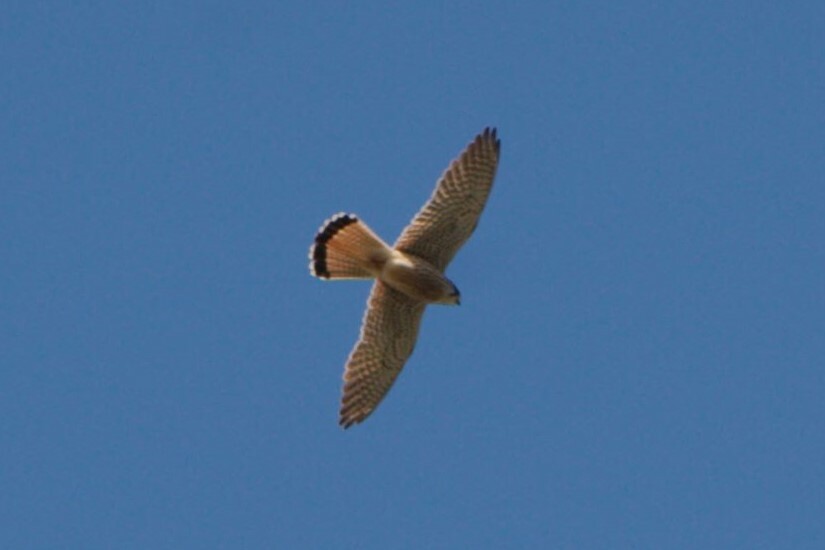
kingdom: Animalia
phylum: Chordata
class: Aves
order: Falconiformes
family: Falconidae
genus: Falco
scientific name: Falco tinnunculus
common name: Common kestrel
